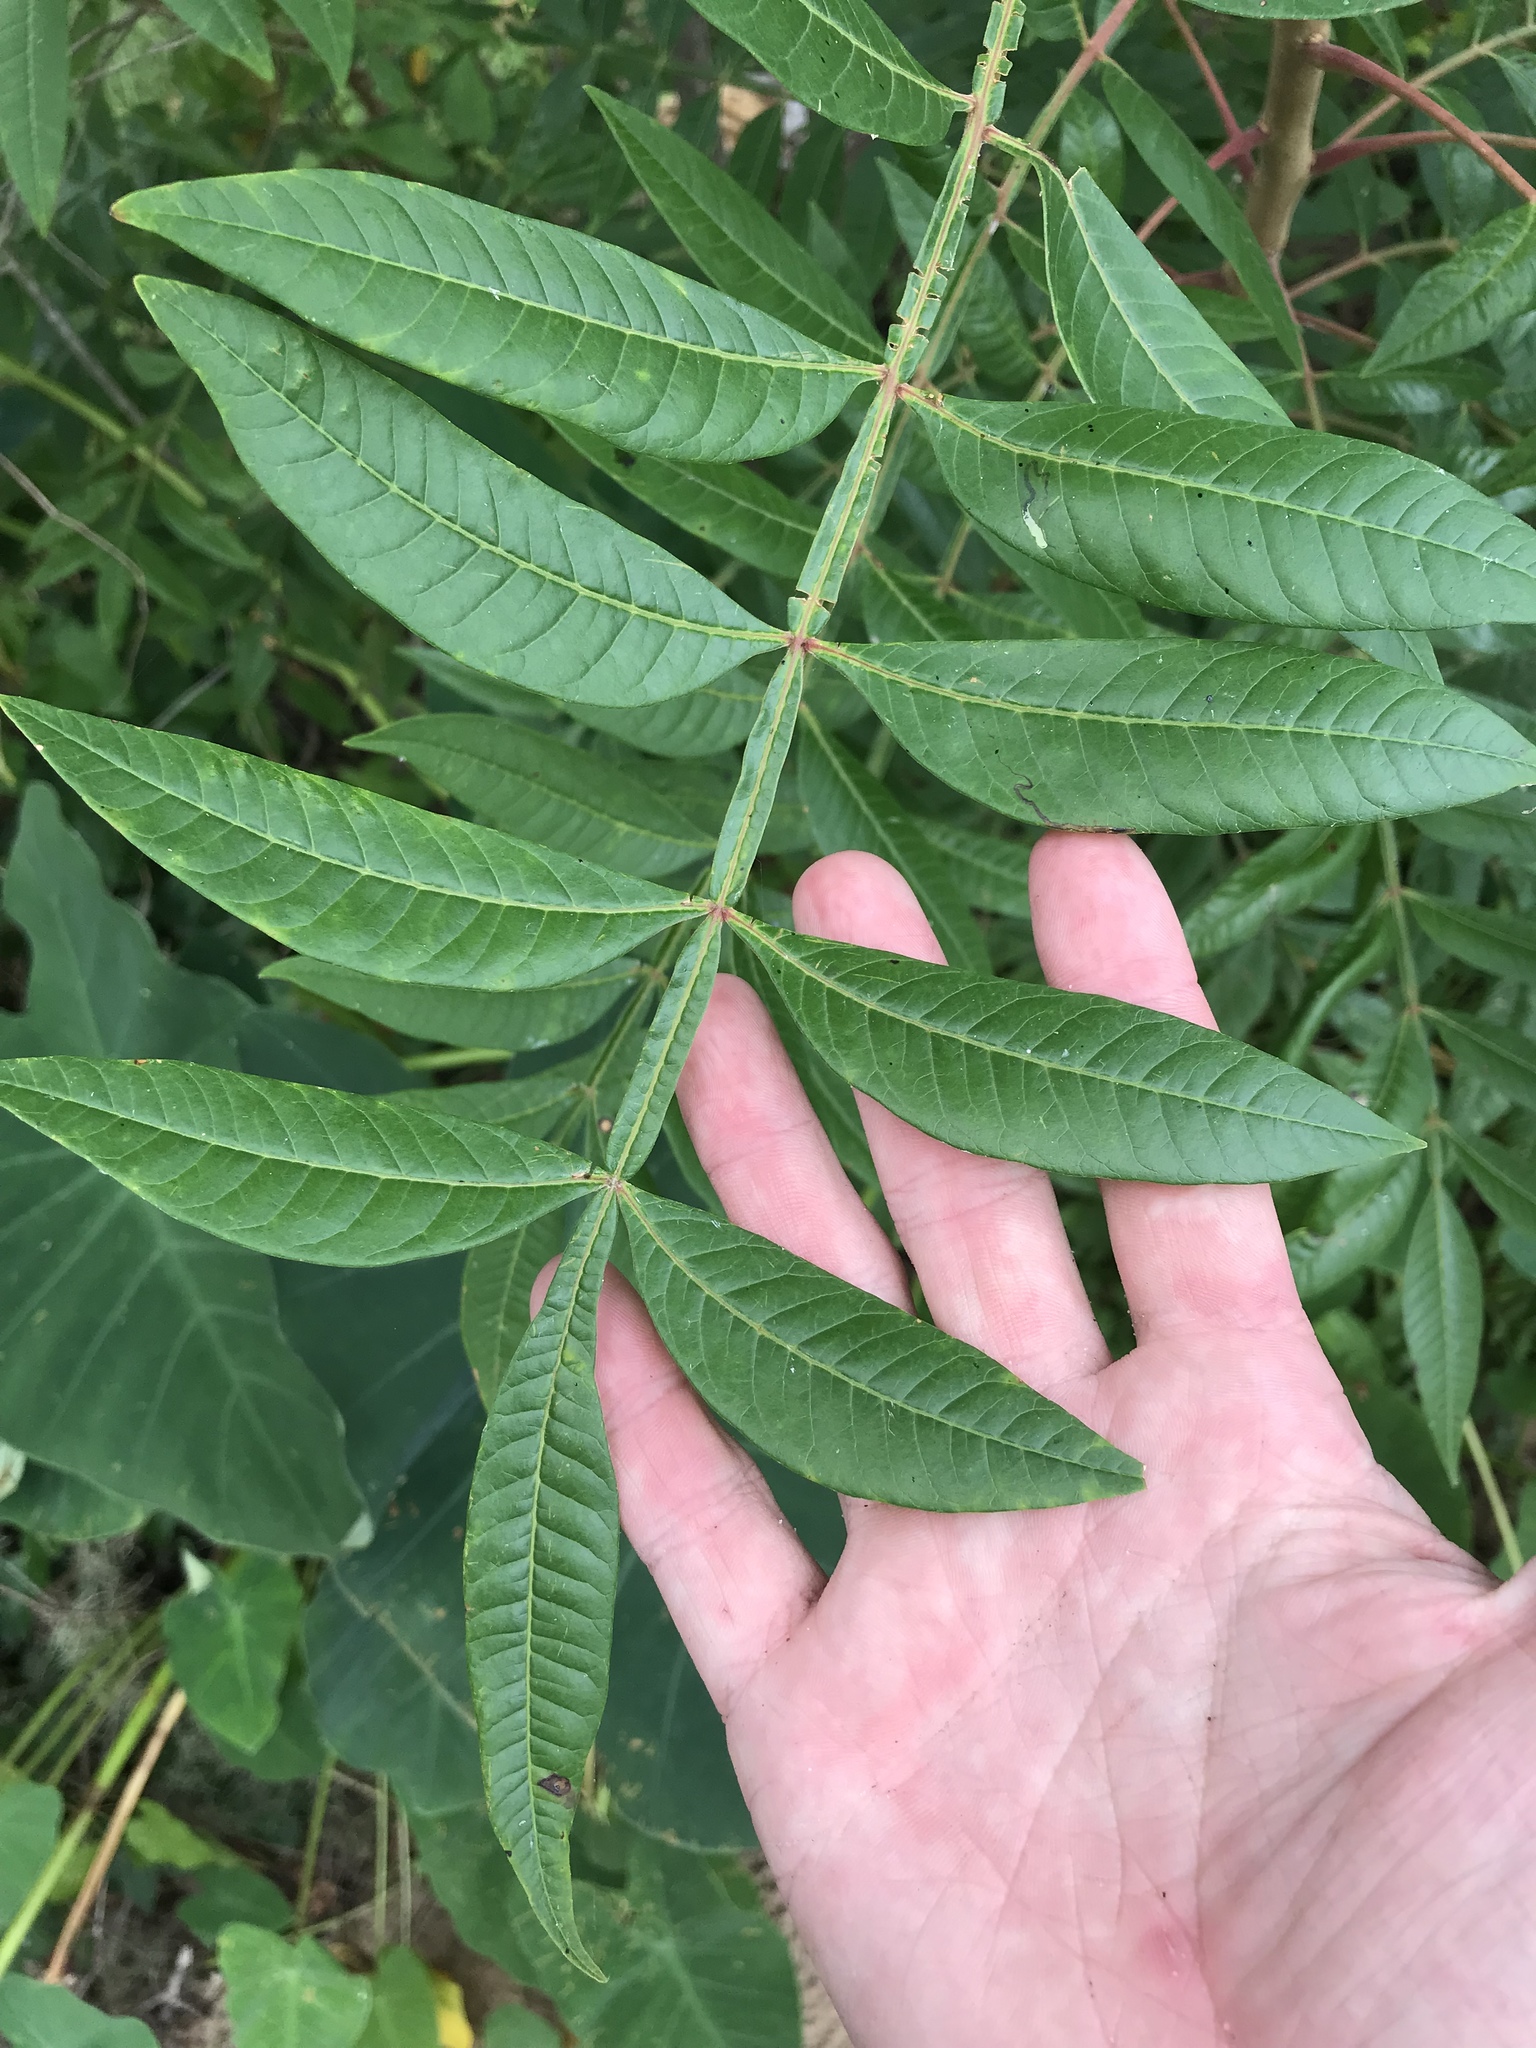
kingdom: Plantae
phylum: Tracheophyta
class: Magnoliopsida
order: Sapindales
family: Anacardiaceae
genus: Rhus
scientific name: Rhus copallina
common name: Shining sumac
